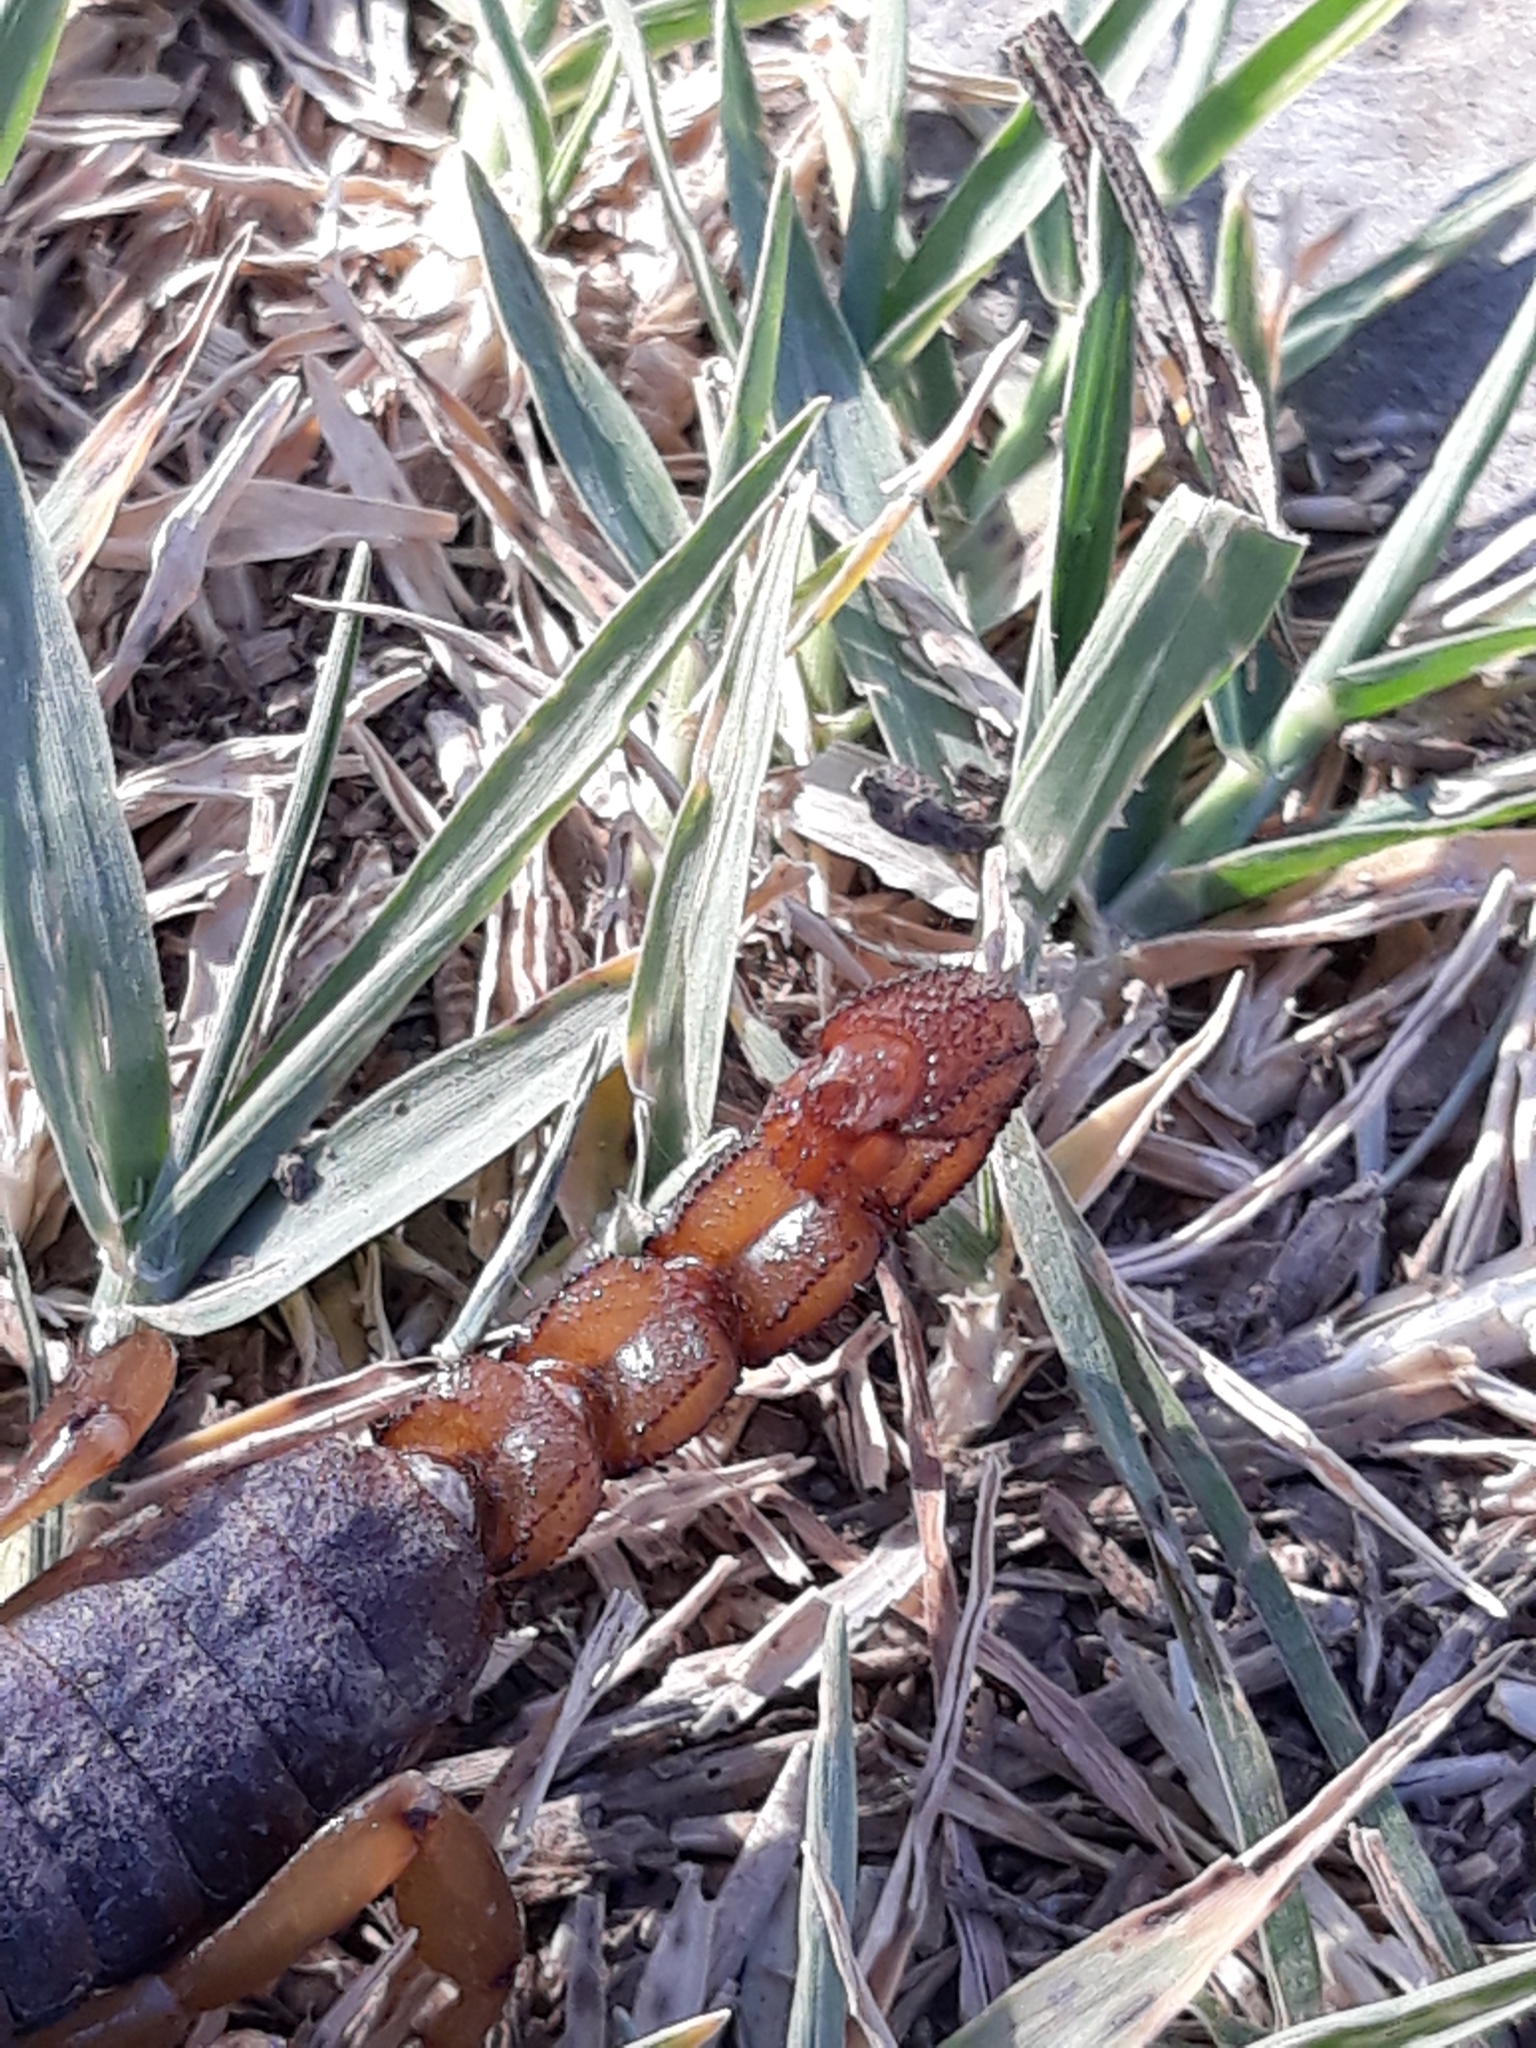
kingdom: Animalia
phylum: Arthropoda
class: Arachnida
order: Scorpiones
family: Scorpionidae
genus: Scorpio
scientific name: Scorpio maurus
